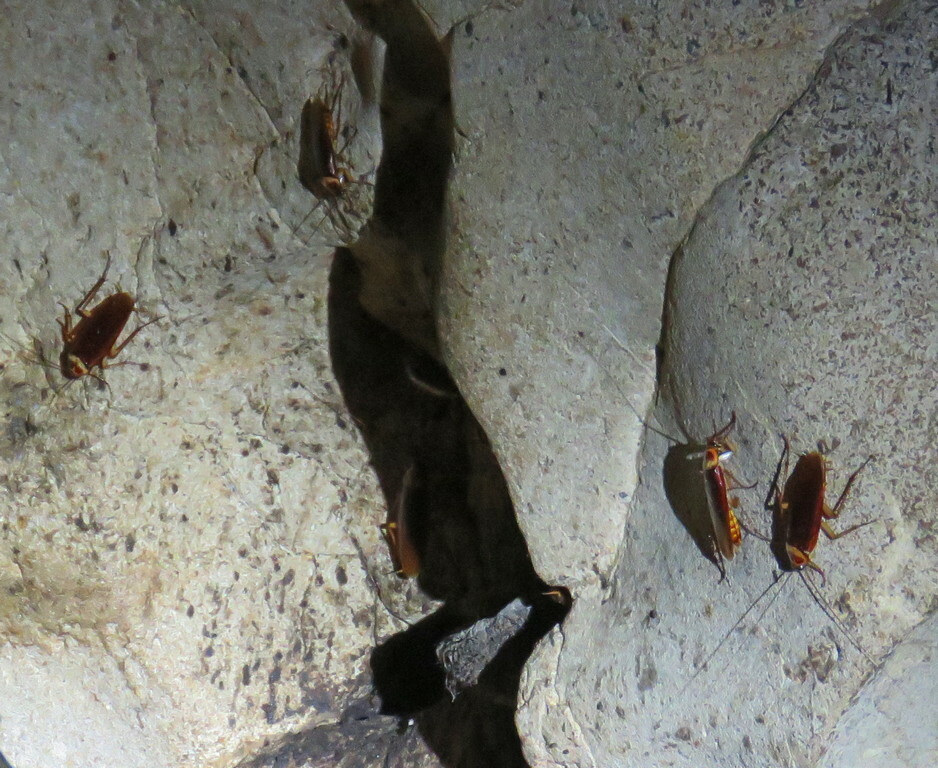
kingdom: Animalia
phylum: Arthropoda
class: Insecta
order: Blattodea
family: Blattidae
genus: Periplaneta
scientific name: Periplaneta americana
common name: American cockroach
